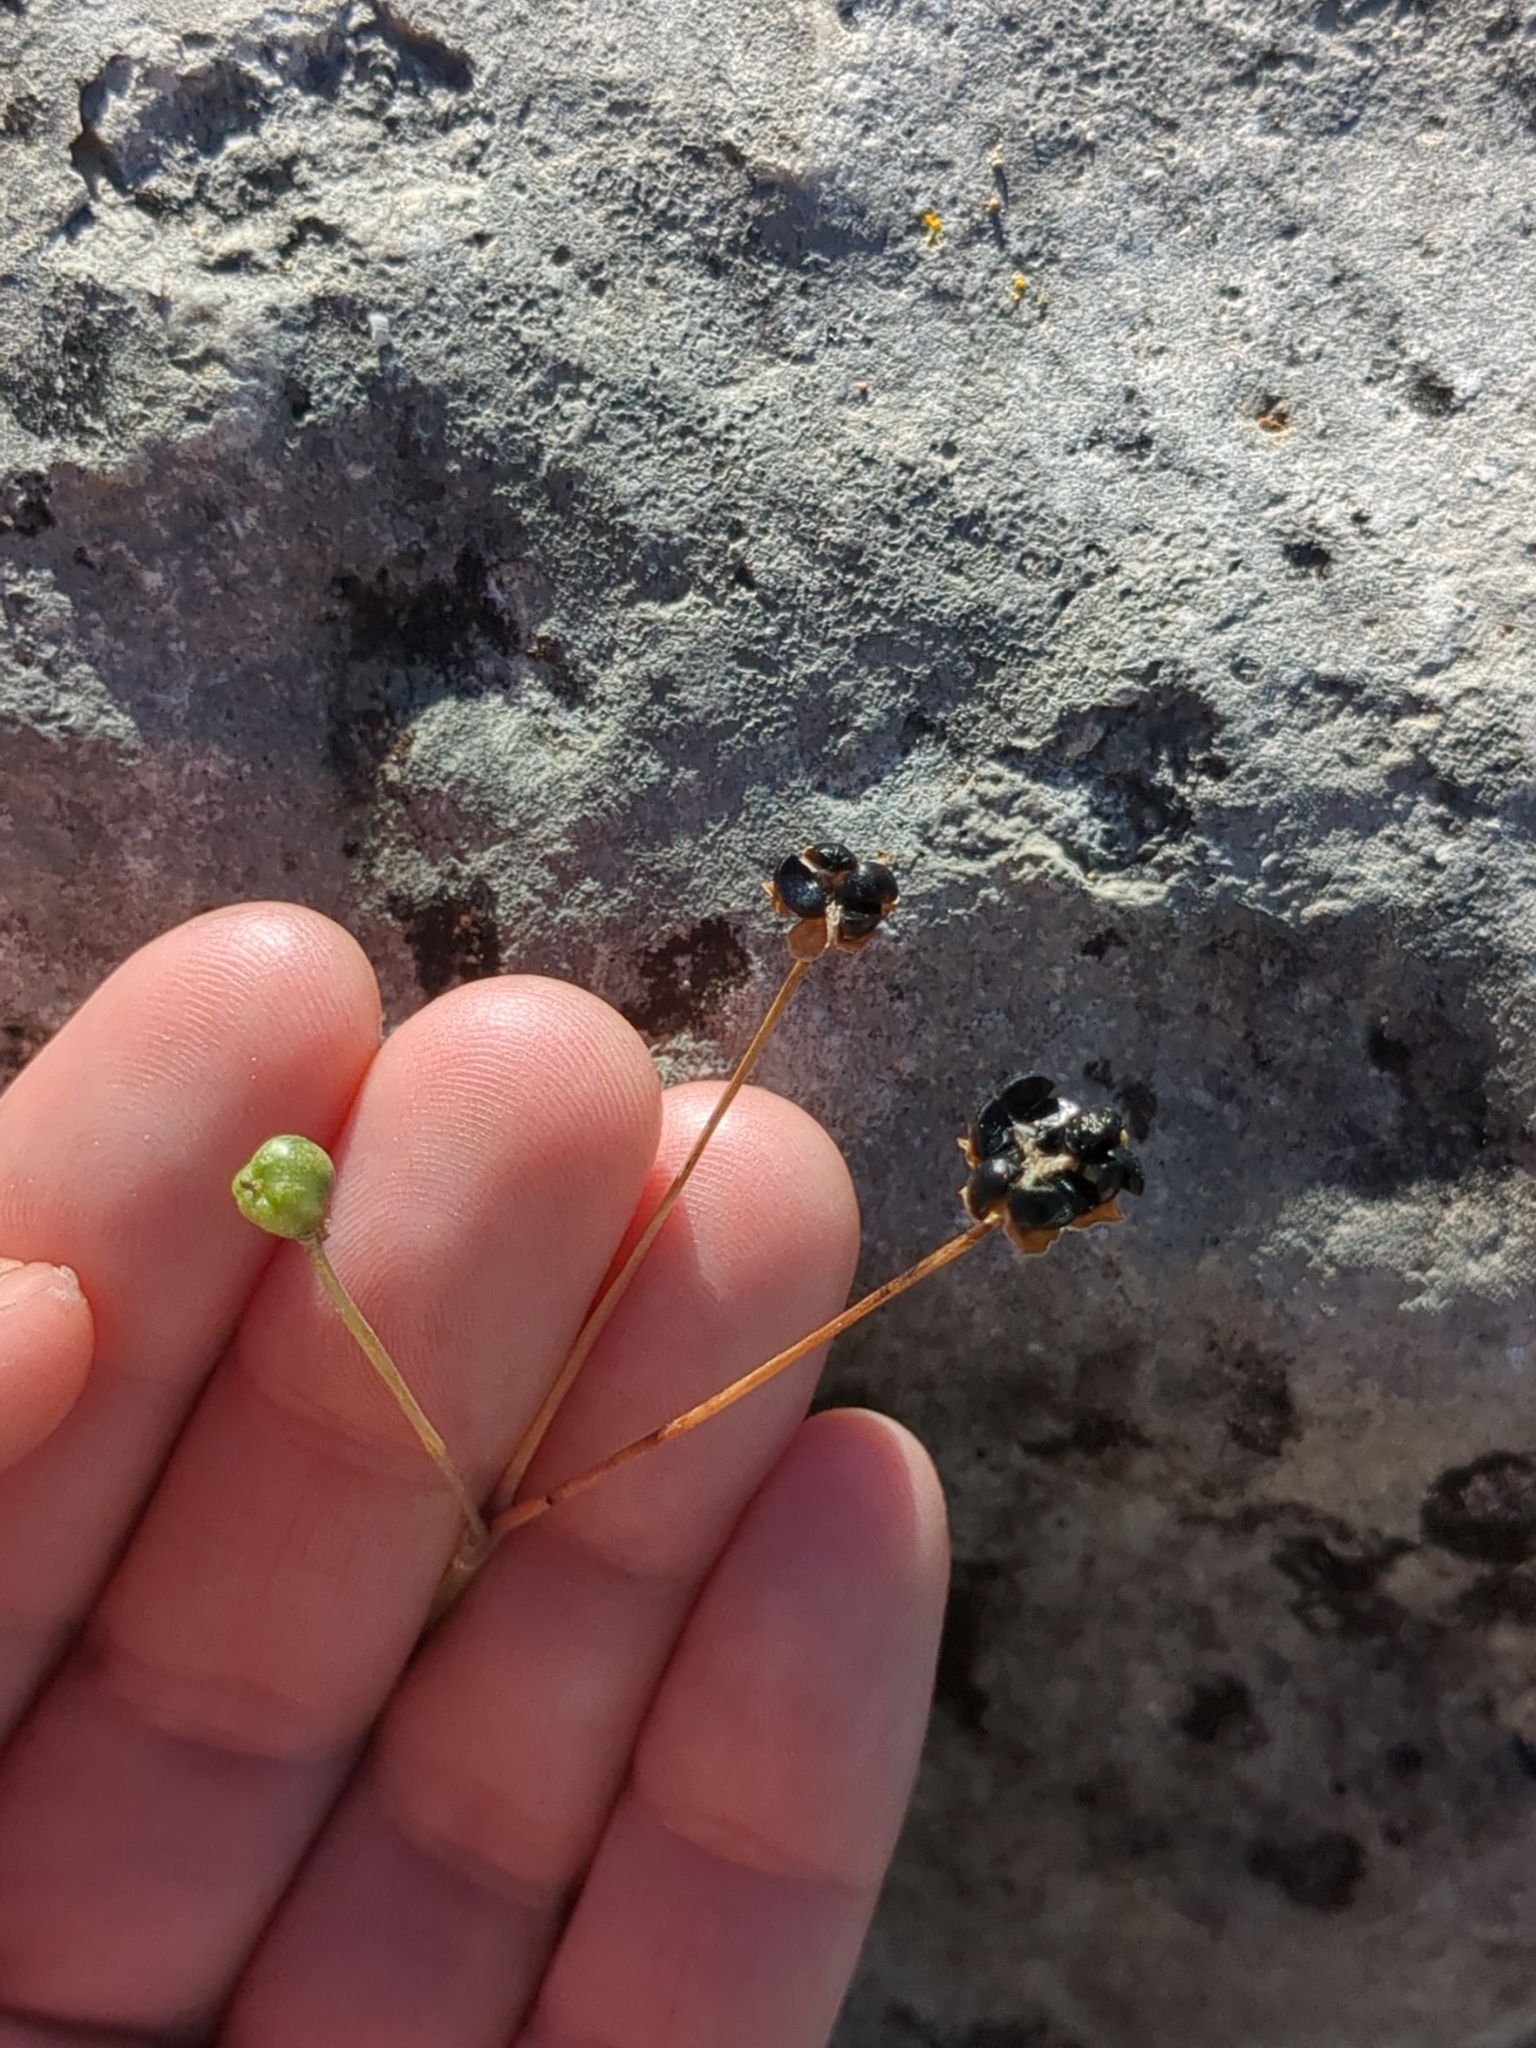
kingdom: Plantae
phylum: Tracheophyta
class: Liliopsida
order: Asparagales
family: Amaryllidaceae
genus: Nothoscordum
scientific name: Nothoscordum bivalve
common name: Crow-poison
